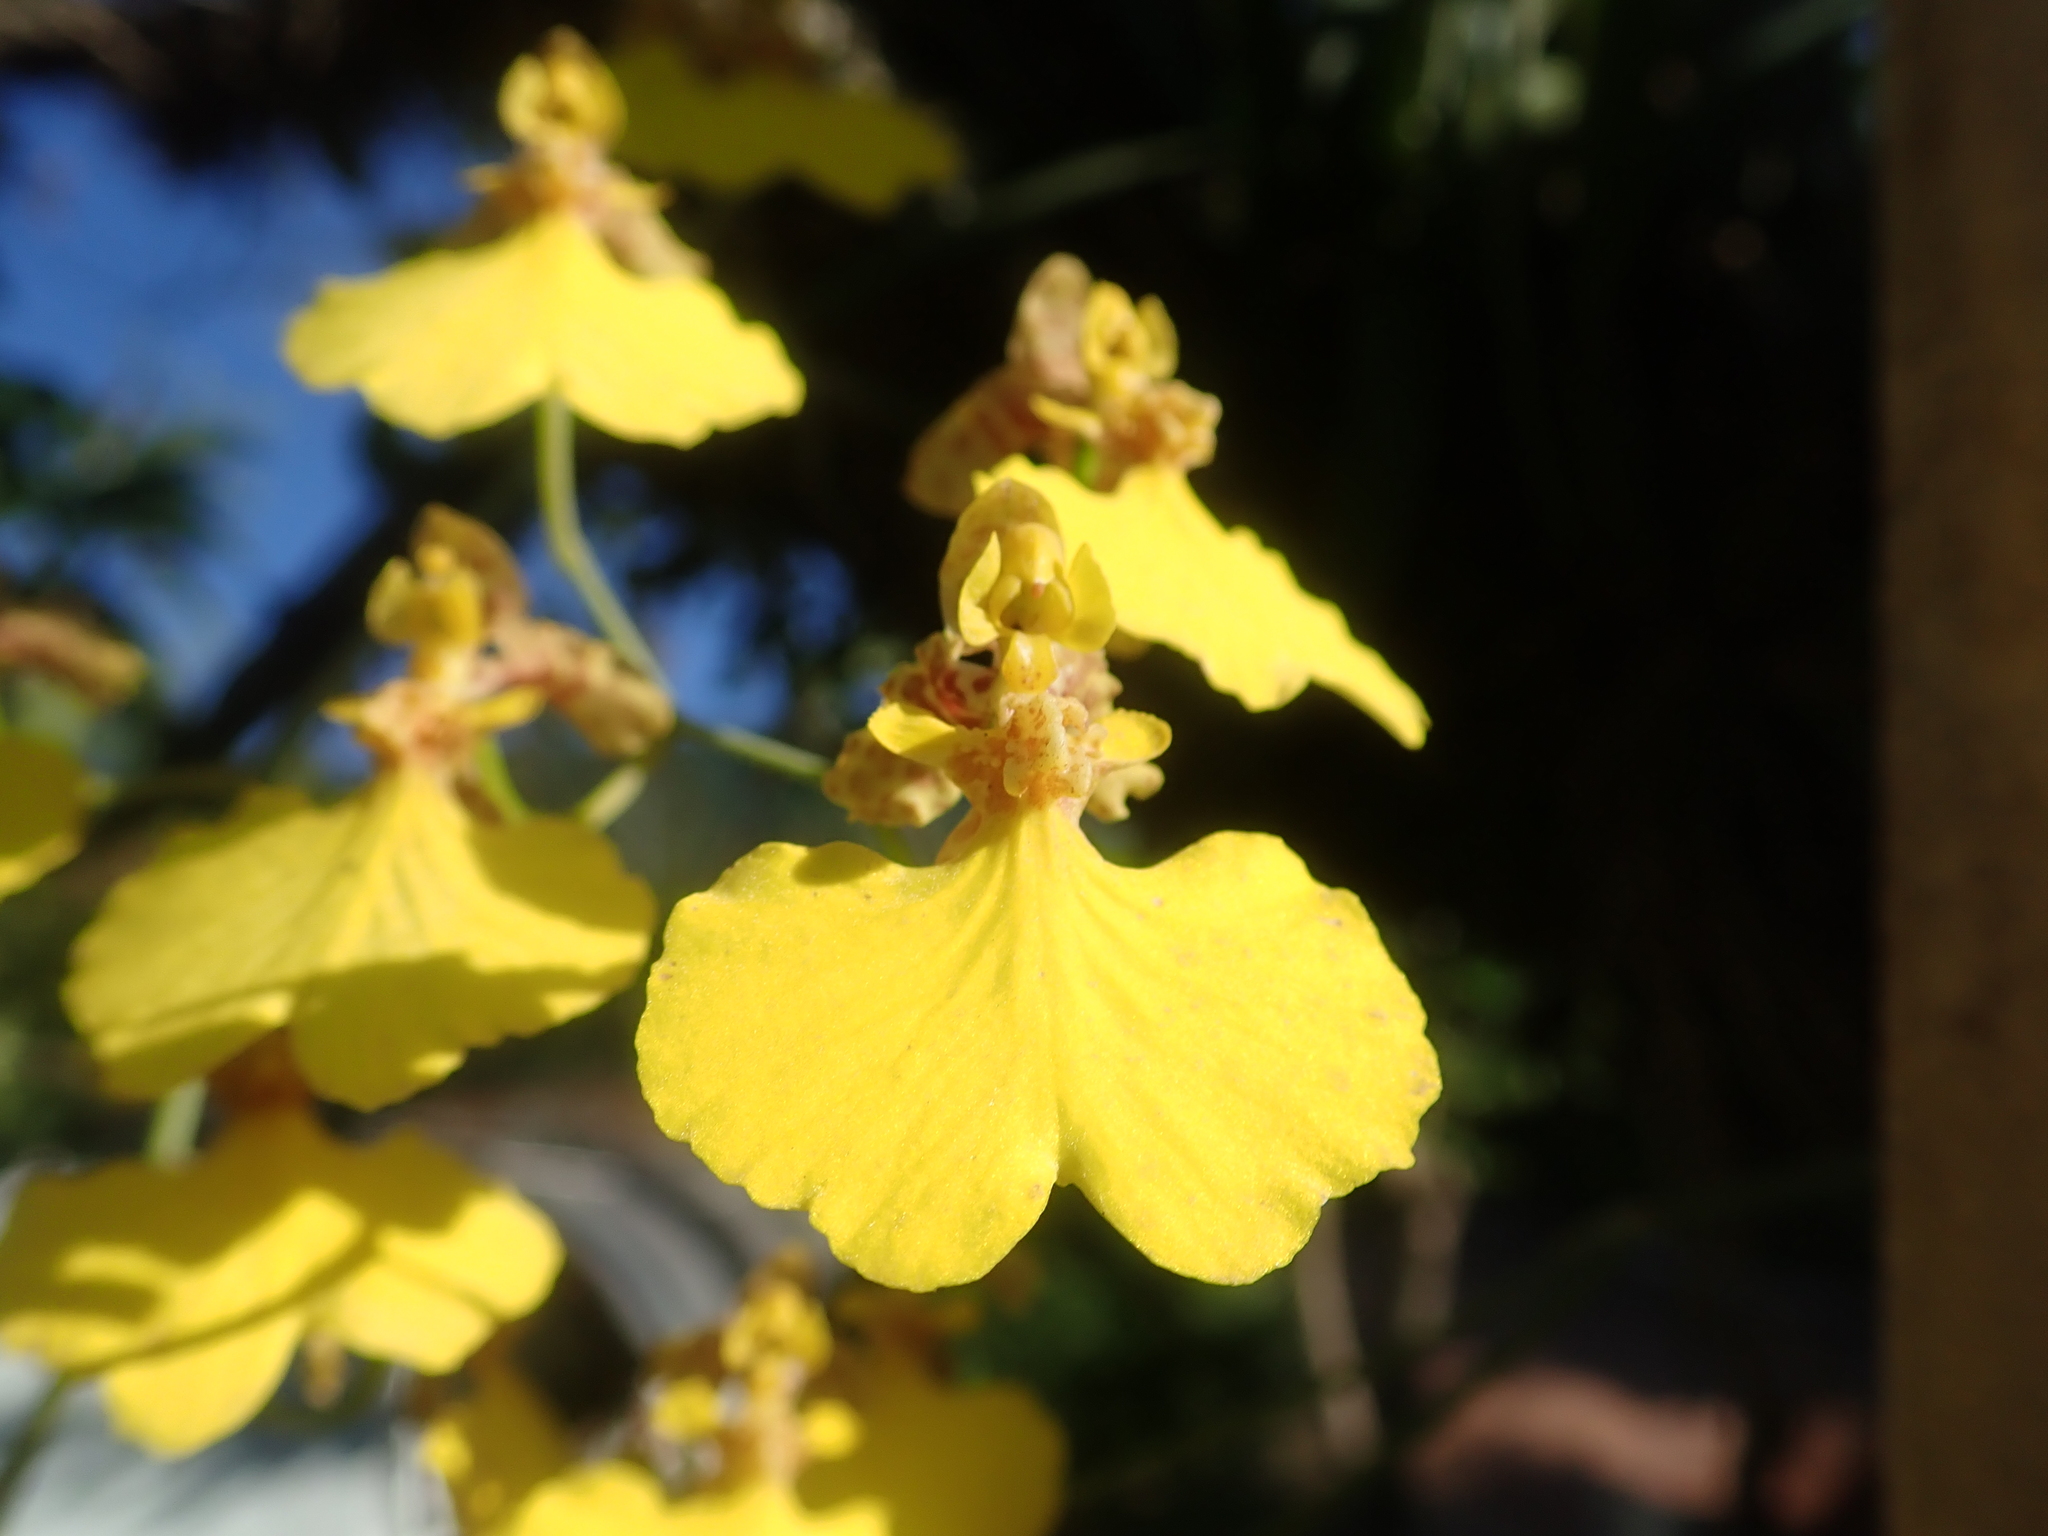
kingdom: Plantae
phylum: Tracheophyta
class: Liliopsida
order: Asparagales
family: Orchidaceae
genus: Gomesa
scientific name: Gomesa bifolia
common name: Dancing ladies
